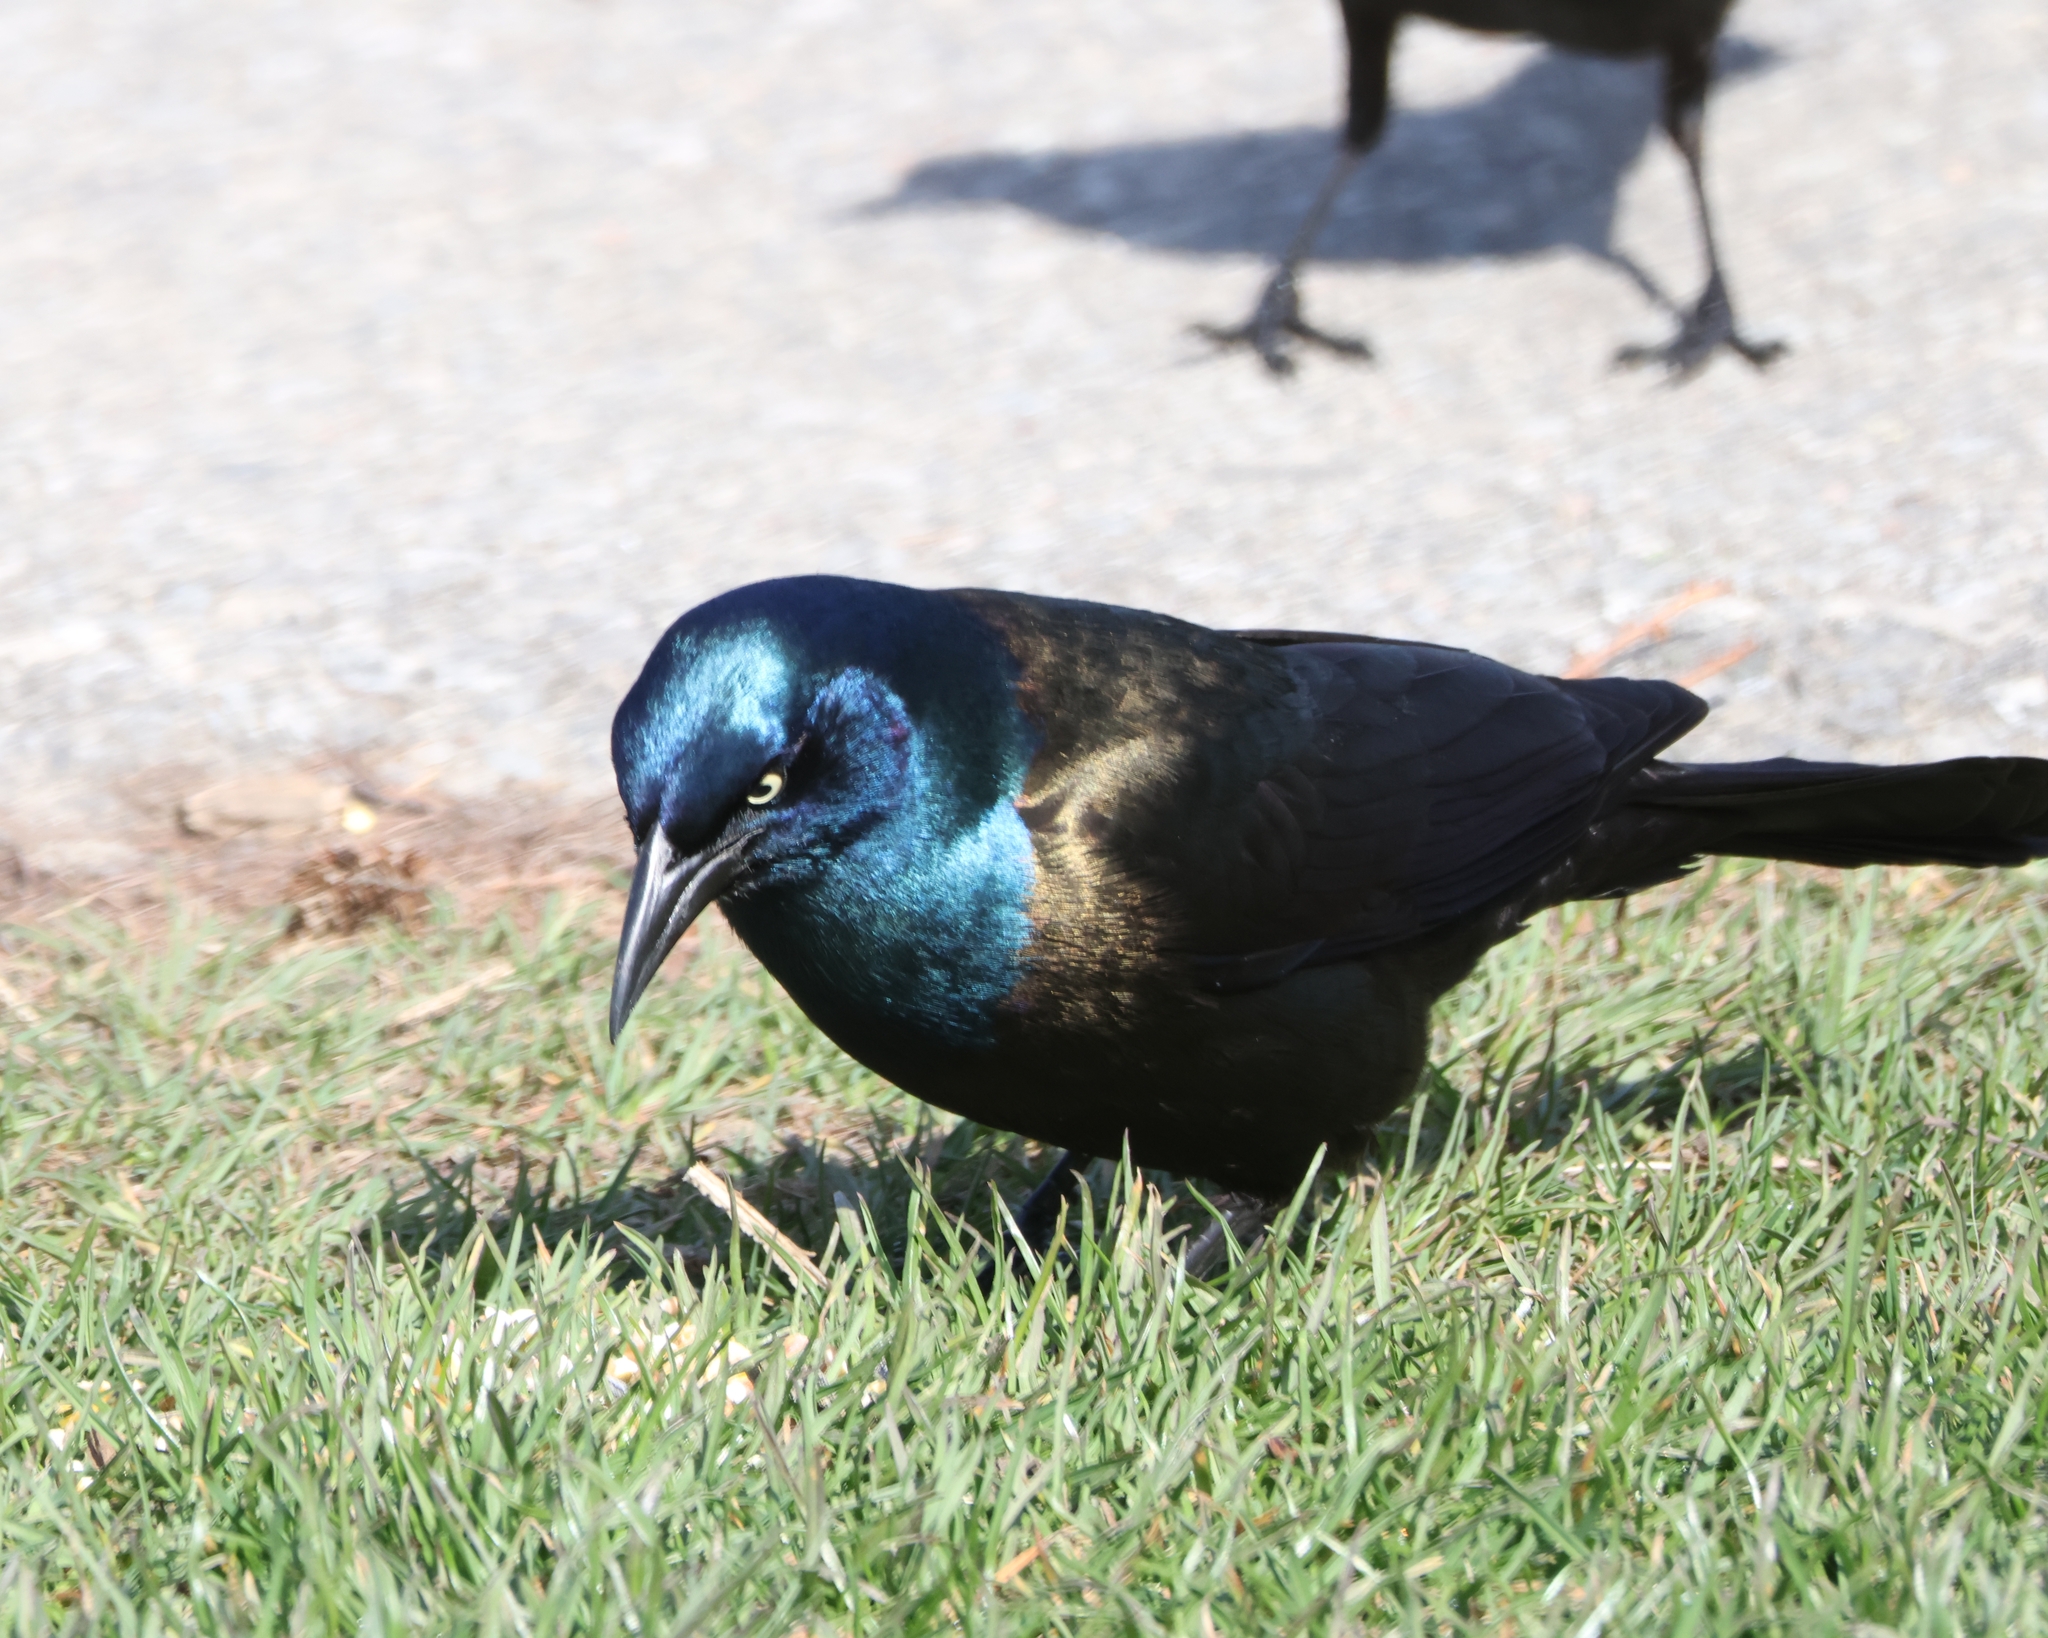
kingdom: Animalia
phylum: Chordata
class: Aves
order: Passeriformes
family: Icteridae
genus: Quiscalus
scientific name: Quiscalus quiscula
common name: Common grackle
